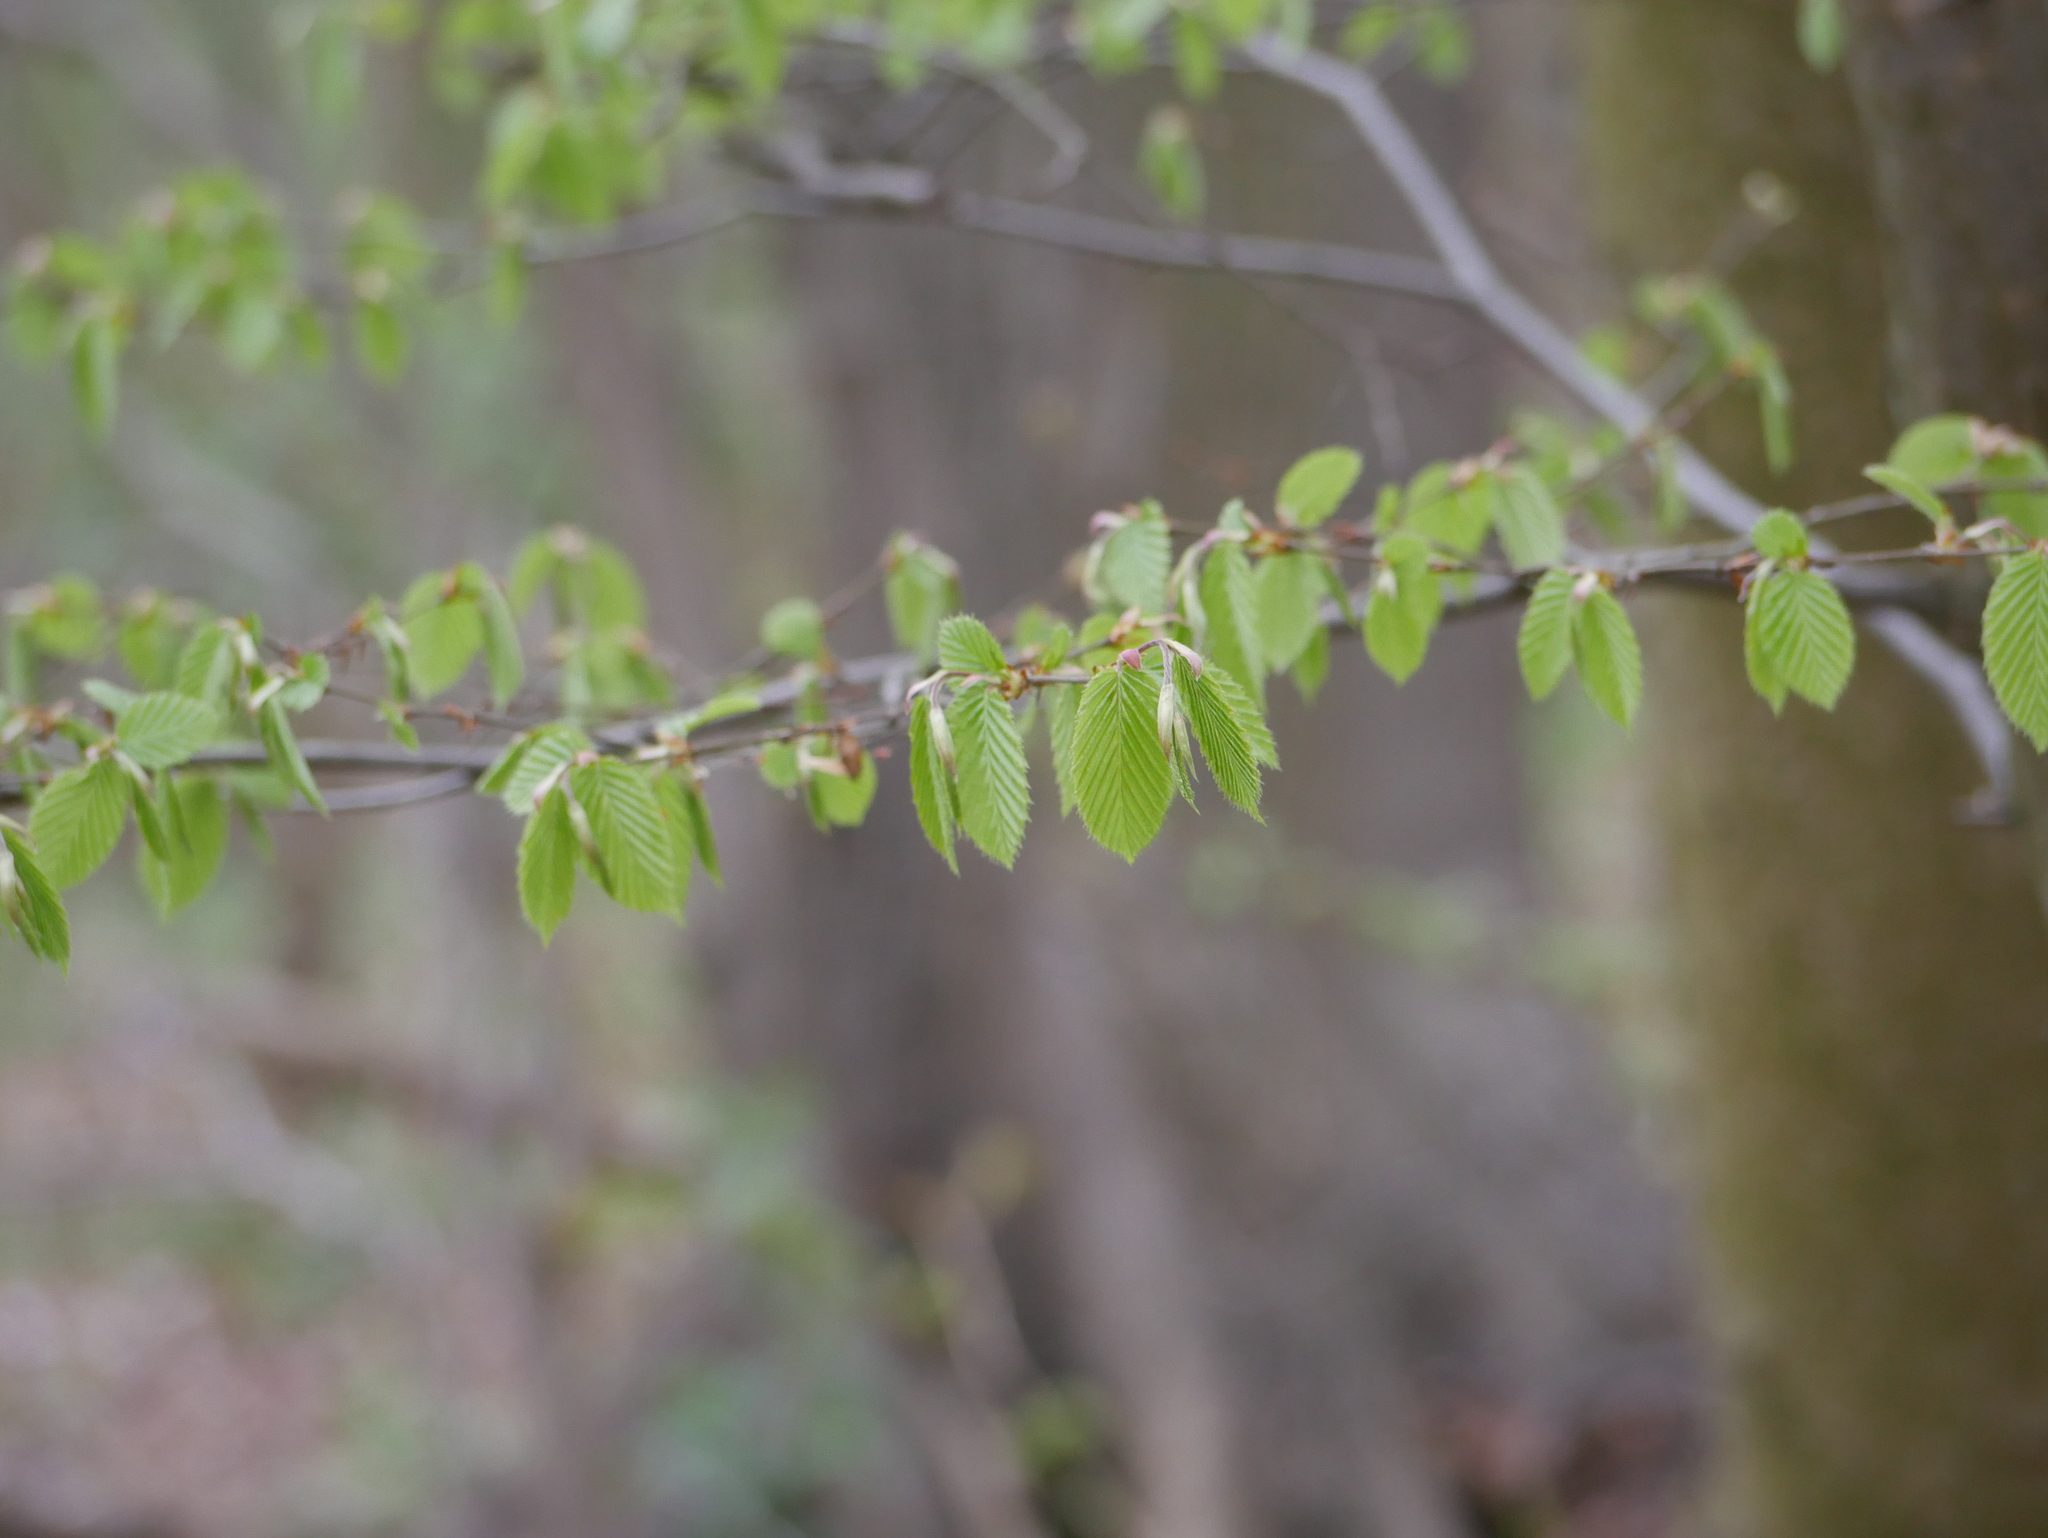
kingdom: Plantae
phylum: Tracheophyta
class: Magnoliopsida
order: Fagales
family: Betulaceae
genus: Carpinus
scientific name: Carpinus betulus
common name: Hornbeam
